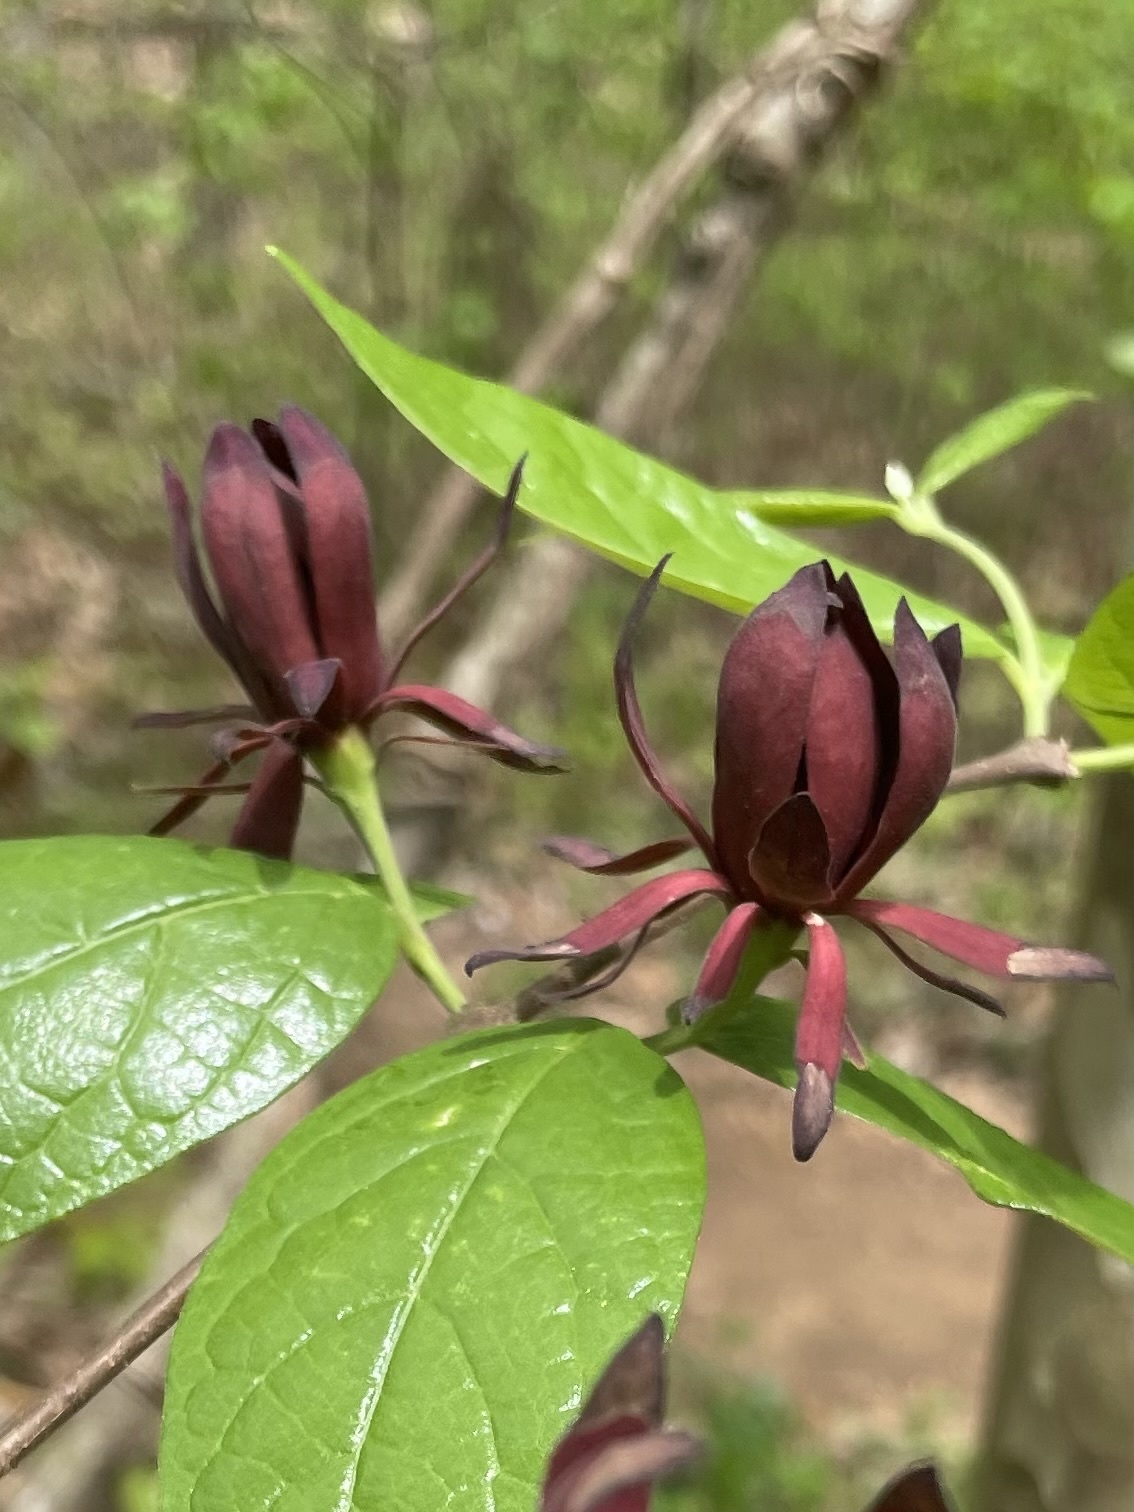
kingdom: Plantae
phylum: Tracheophyta
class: Magnoliopsida
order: Laurales
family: Calycanthaceae
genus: Calycanthus
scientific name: Calycanthus floridus
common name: Carolina-allspice
